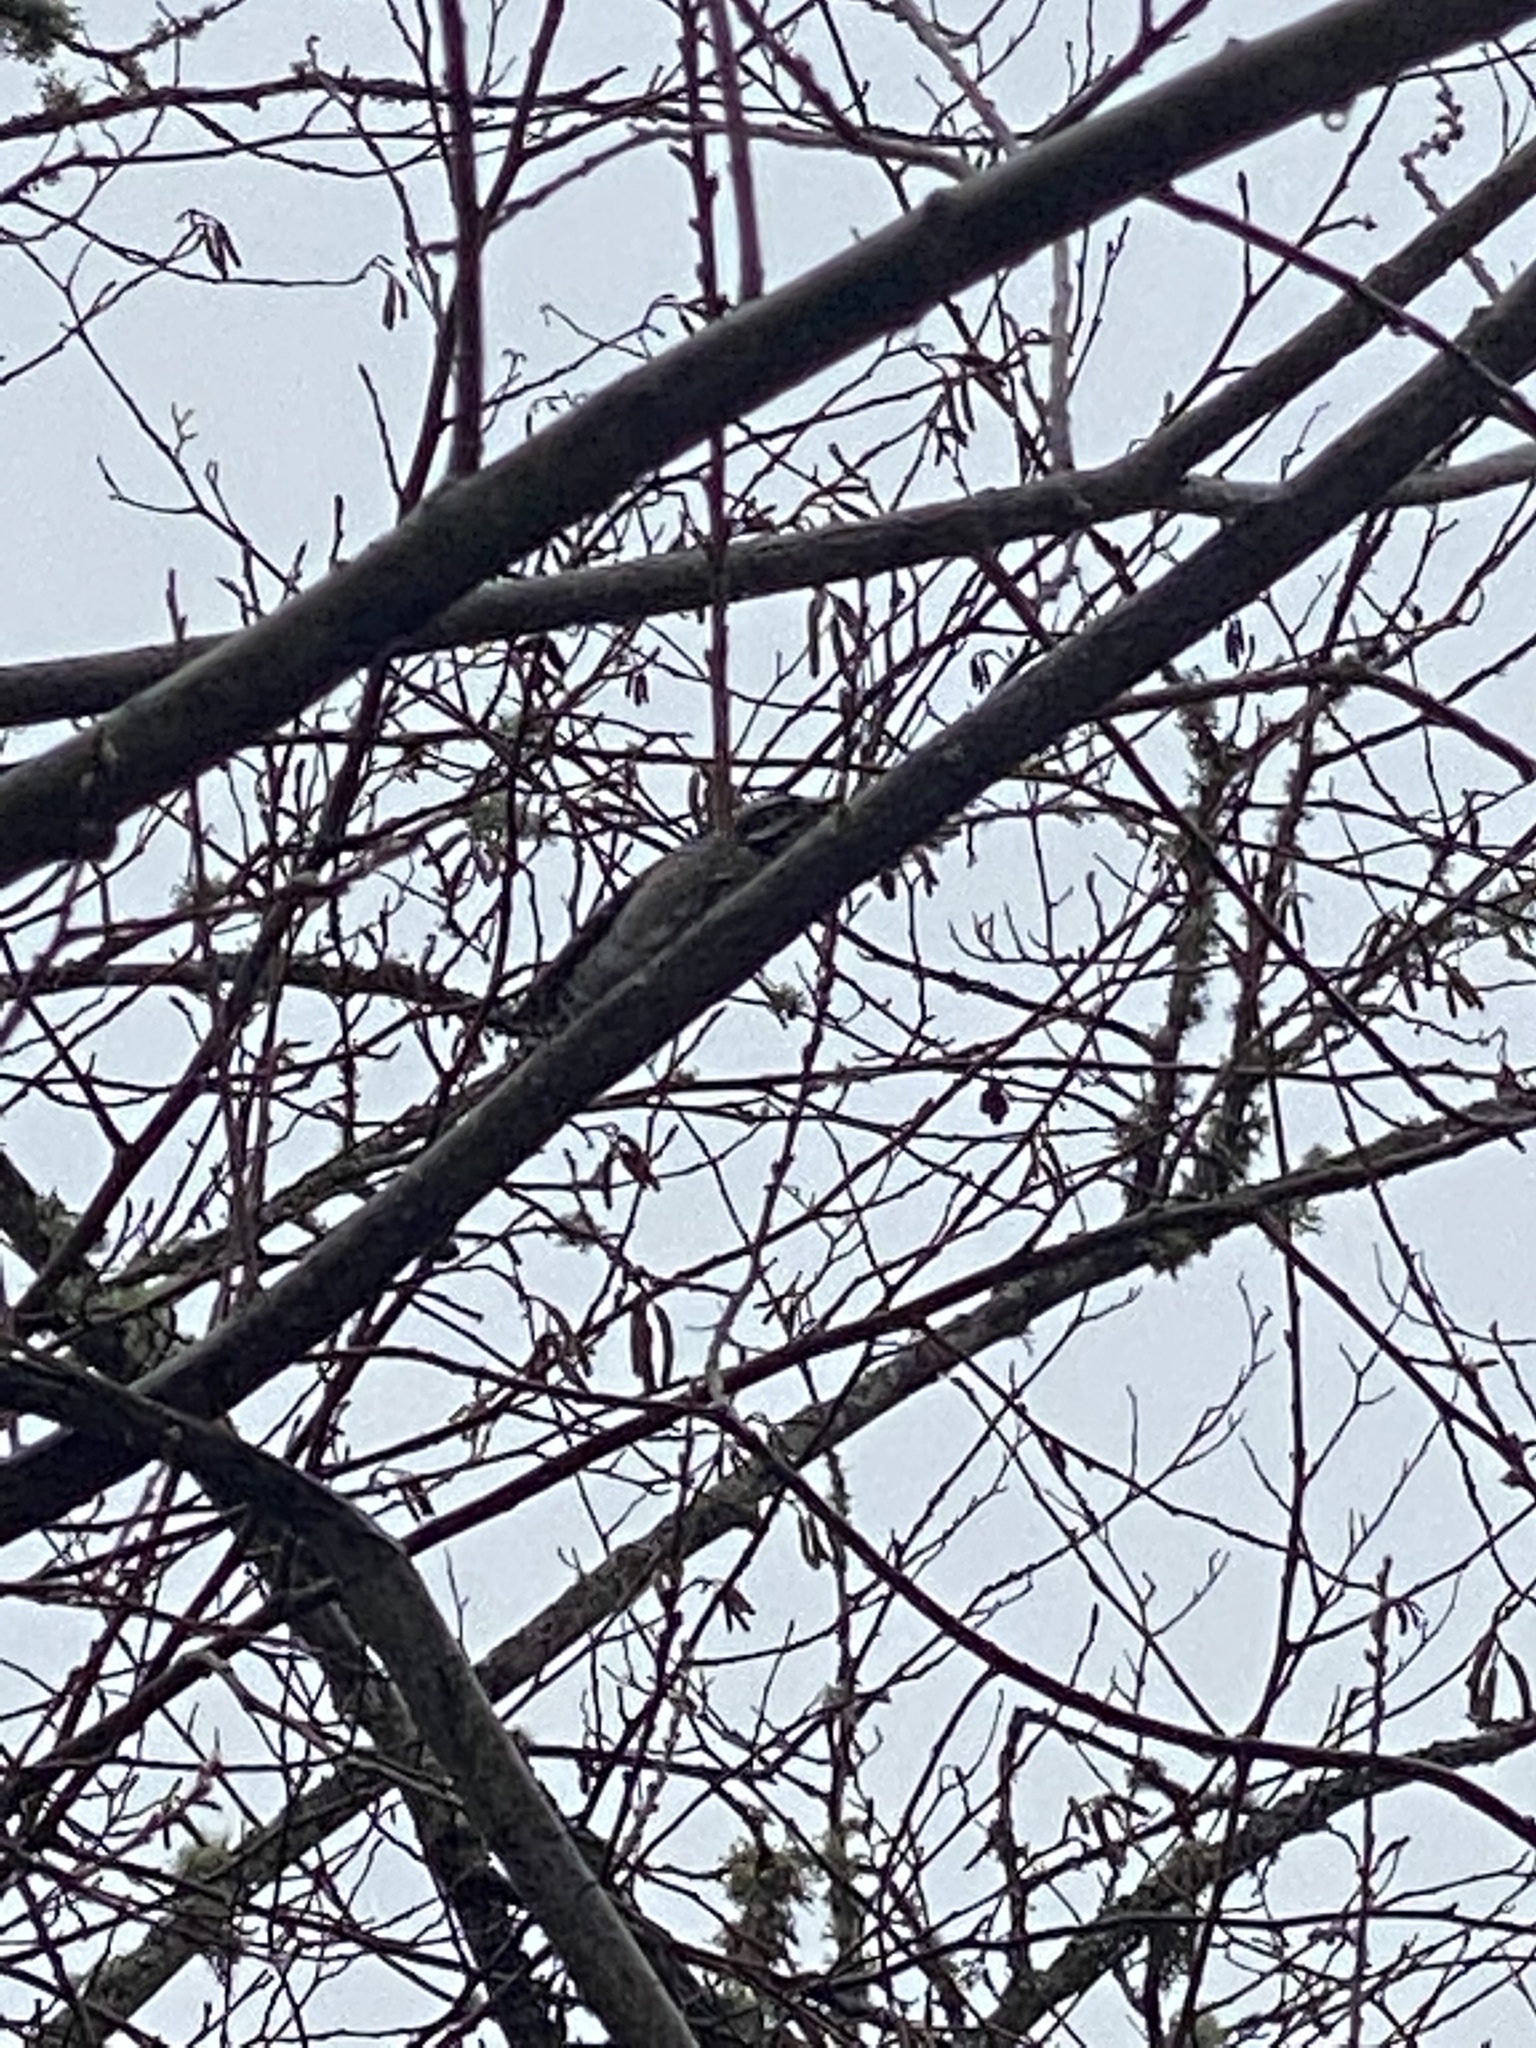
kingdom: Animalia
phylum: Chordata
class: Aves
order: Piciformes
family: Picidae
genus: Dryobates
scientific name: Dryobates pubescens
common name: Downy woodpecker
